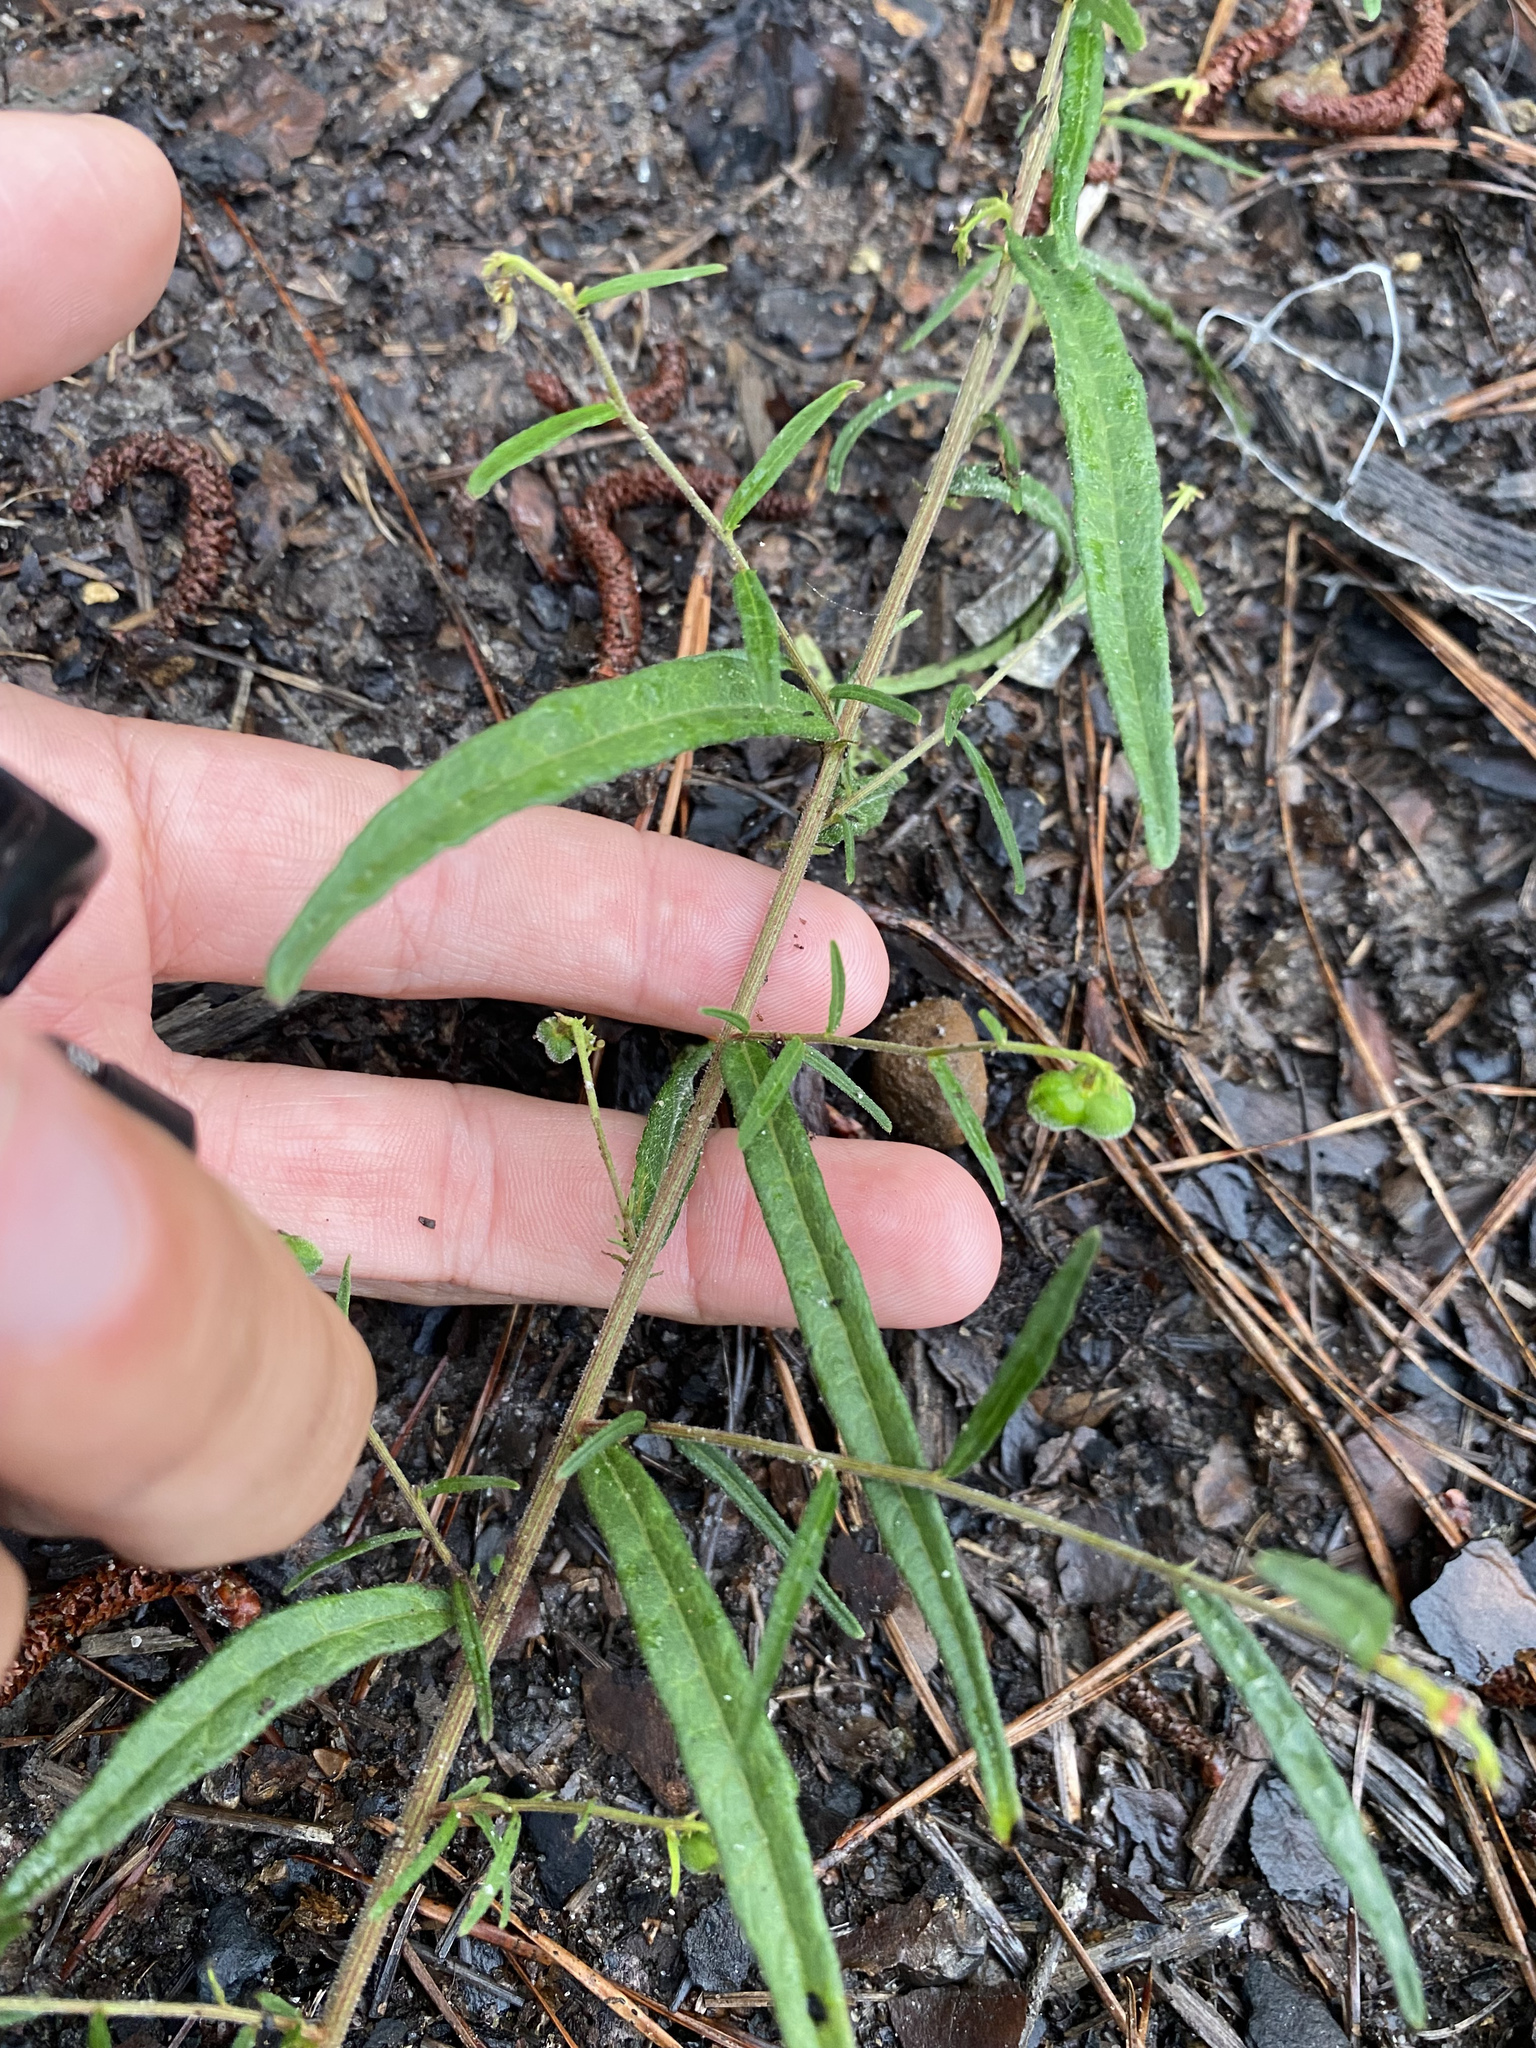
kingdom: Plantae
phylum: Tracheophyta
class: Magnoliopsida
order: Malpighiales
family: Euphorbiaceae
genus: Tragia
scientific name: Tragia urens
